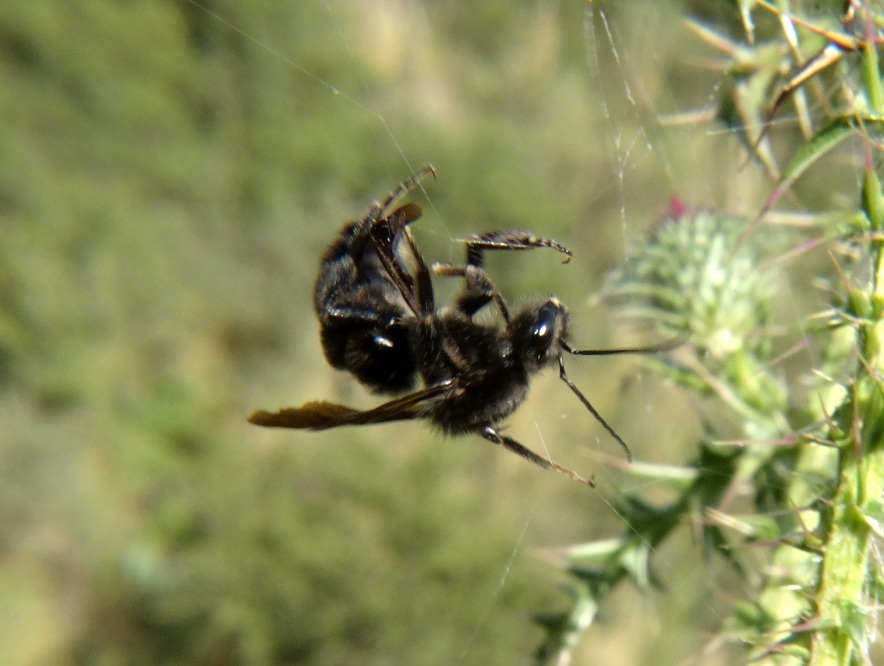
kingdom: Animalia
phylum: Arthropoda
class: Insecta
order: Hymenoptera
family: Apidae
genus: Bombus
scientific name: Bombus pauloensis
